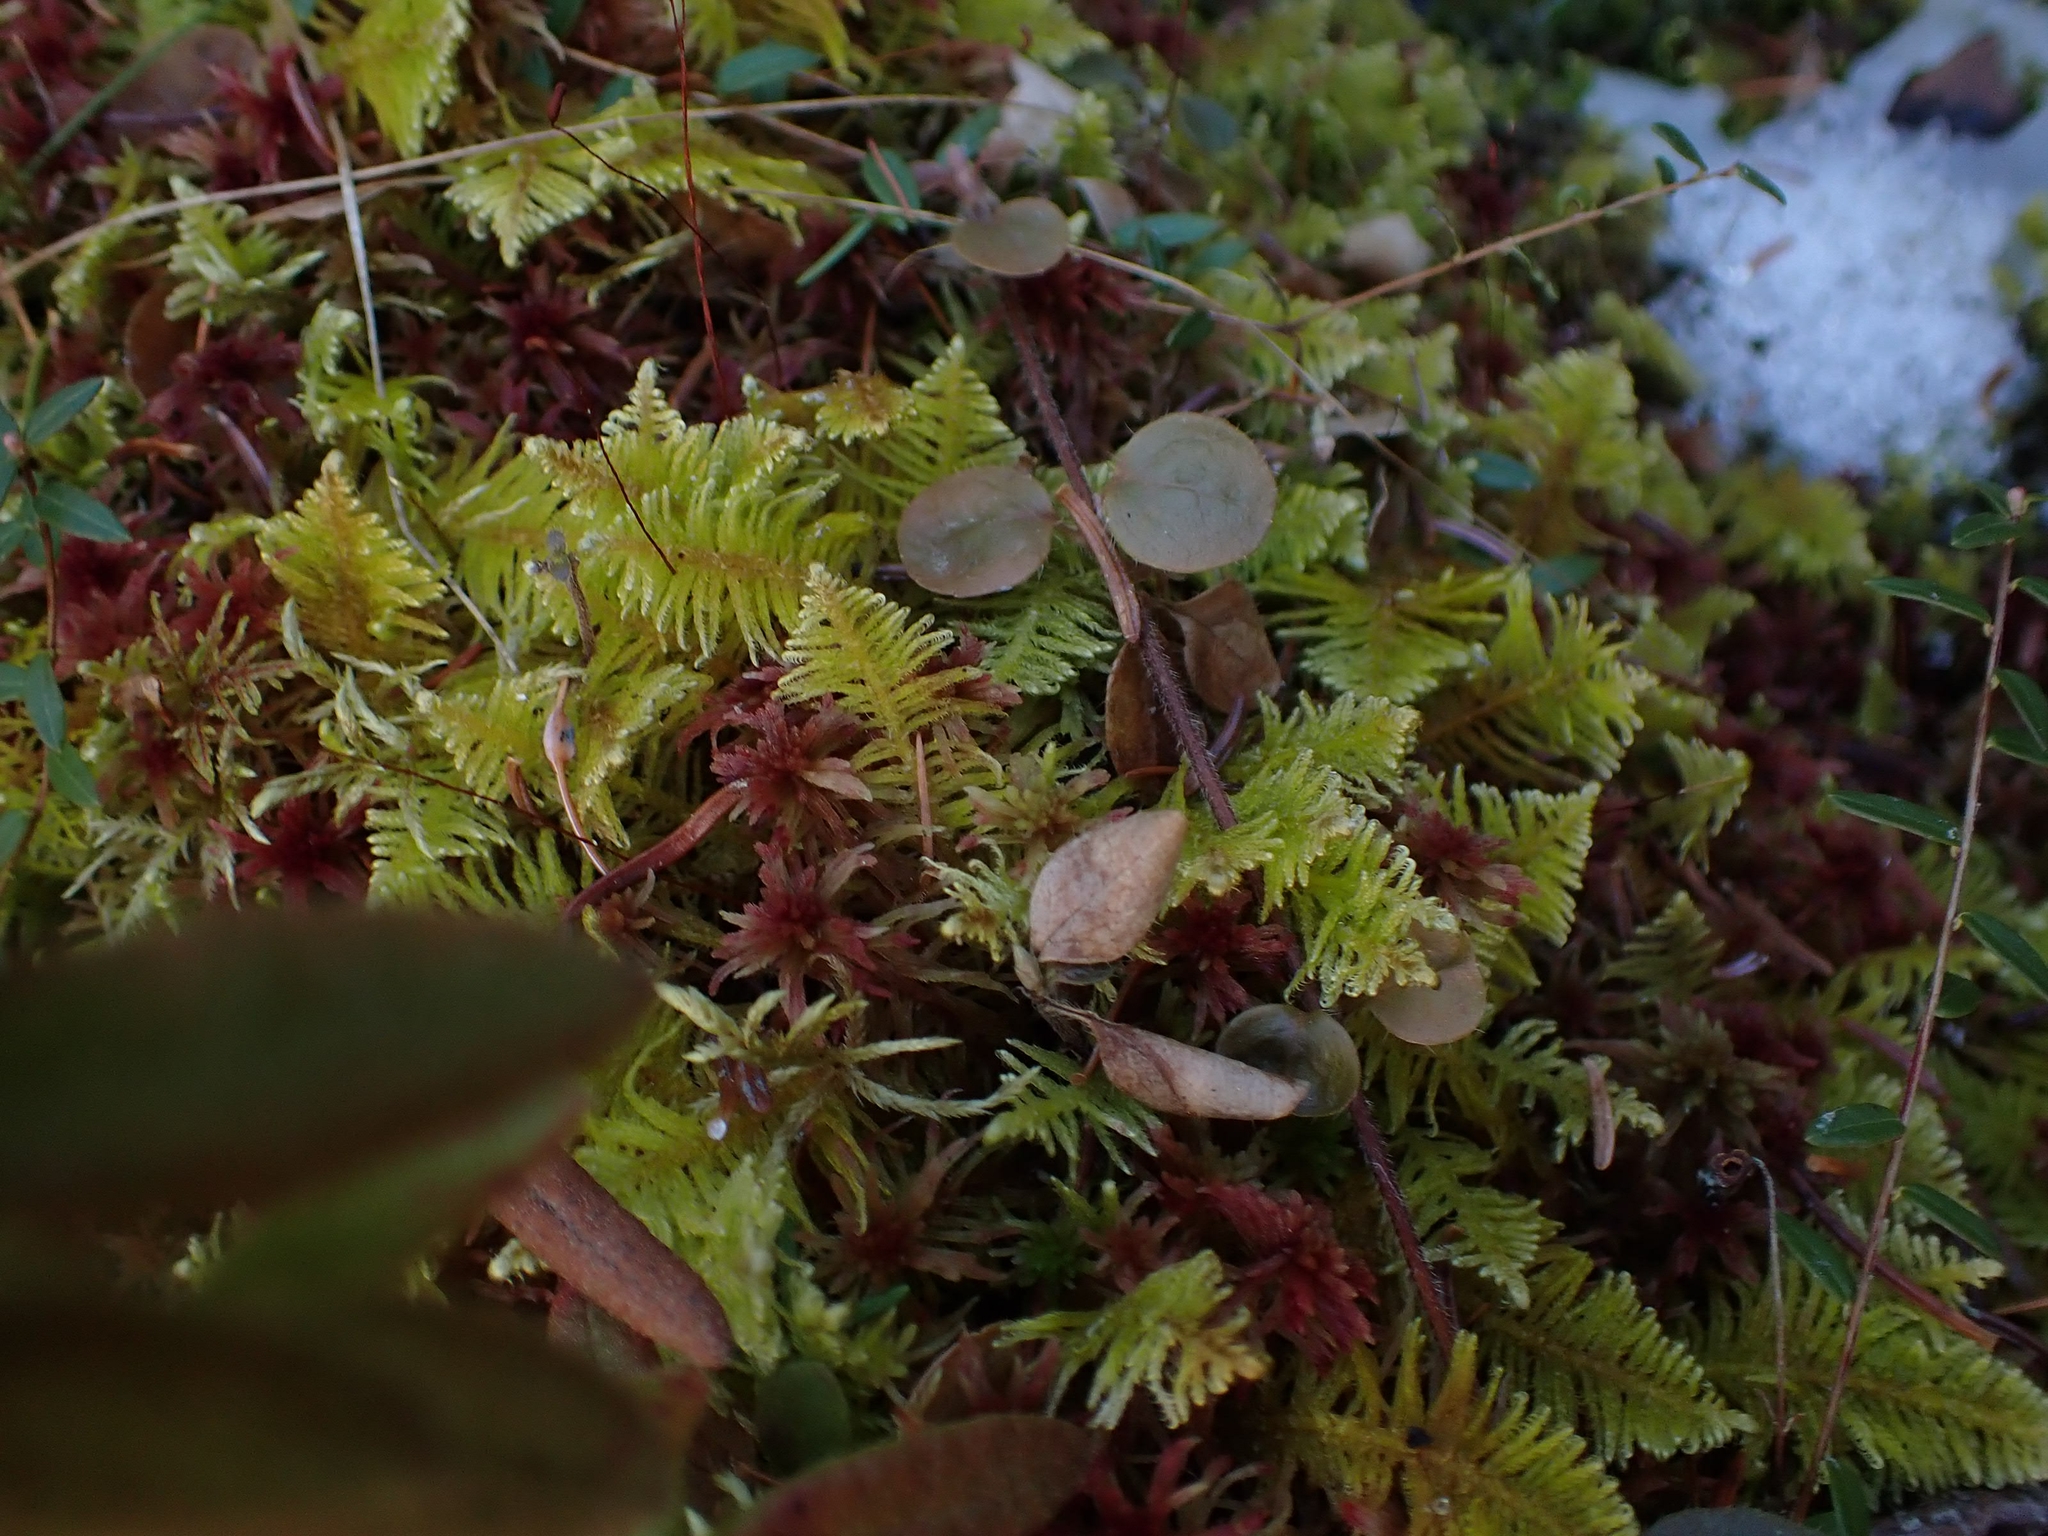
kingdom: Plantae
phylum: Bryophyta
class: Bryopsida
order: Hypnales
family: Pylaisiaceae
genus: Ptilium
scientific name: Ptilium crista-castrensis
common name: Knight's plume moss
